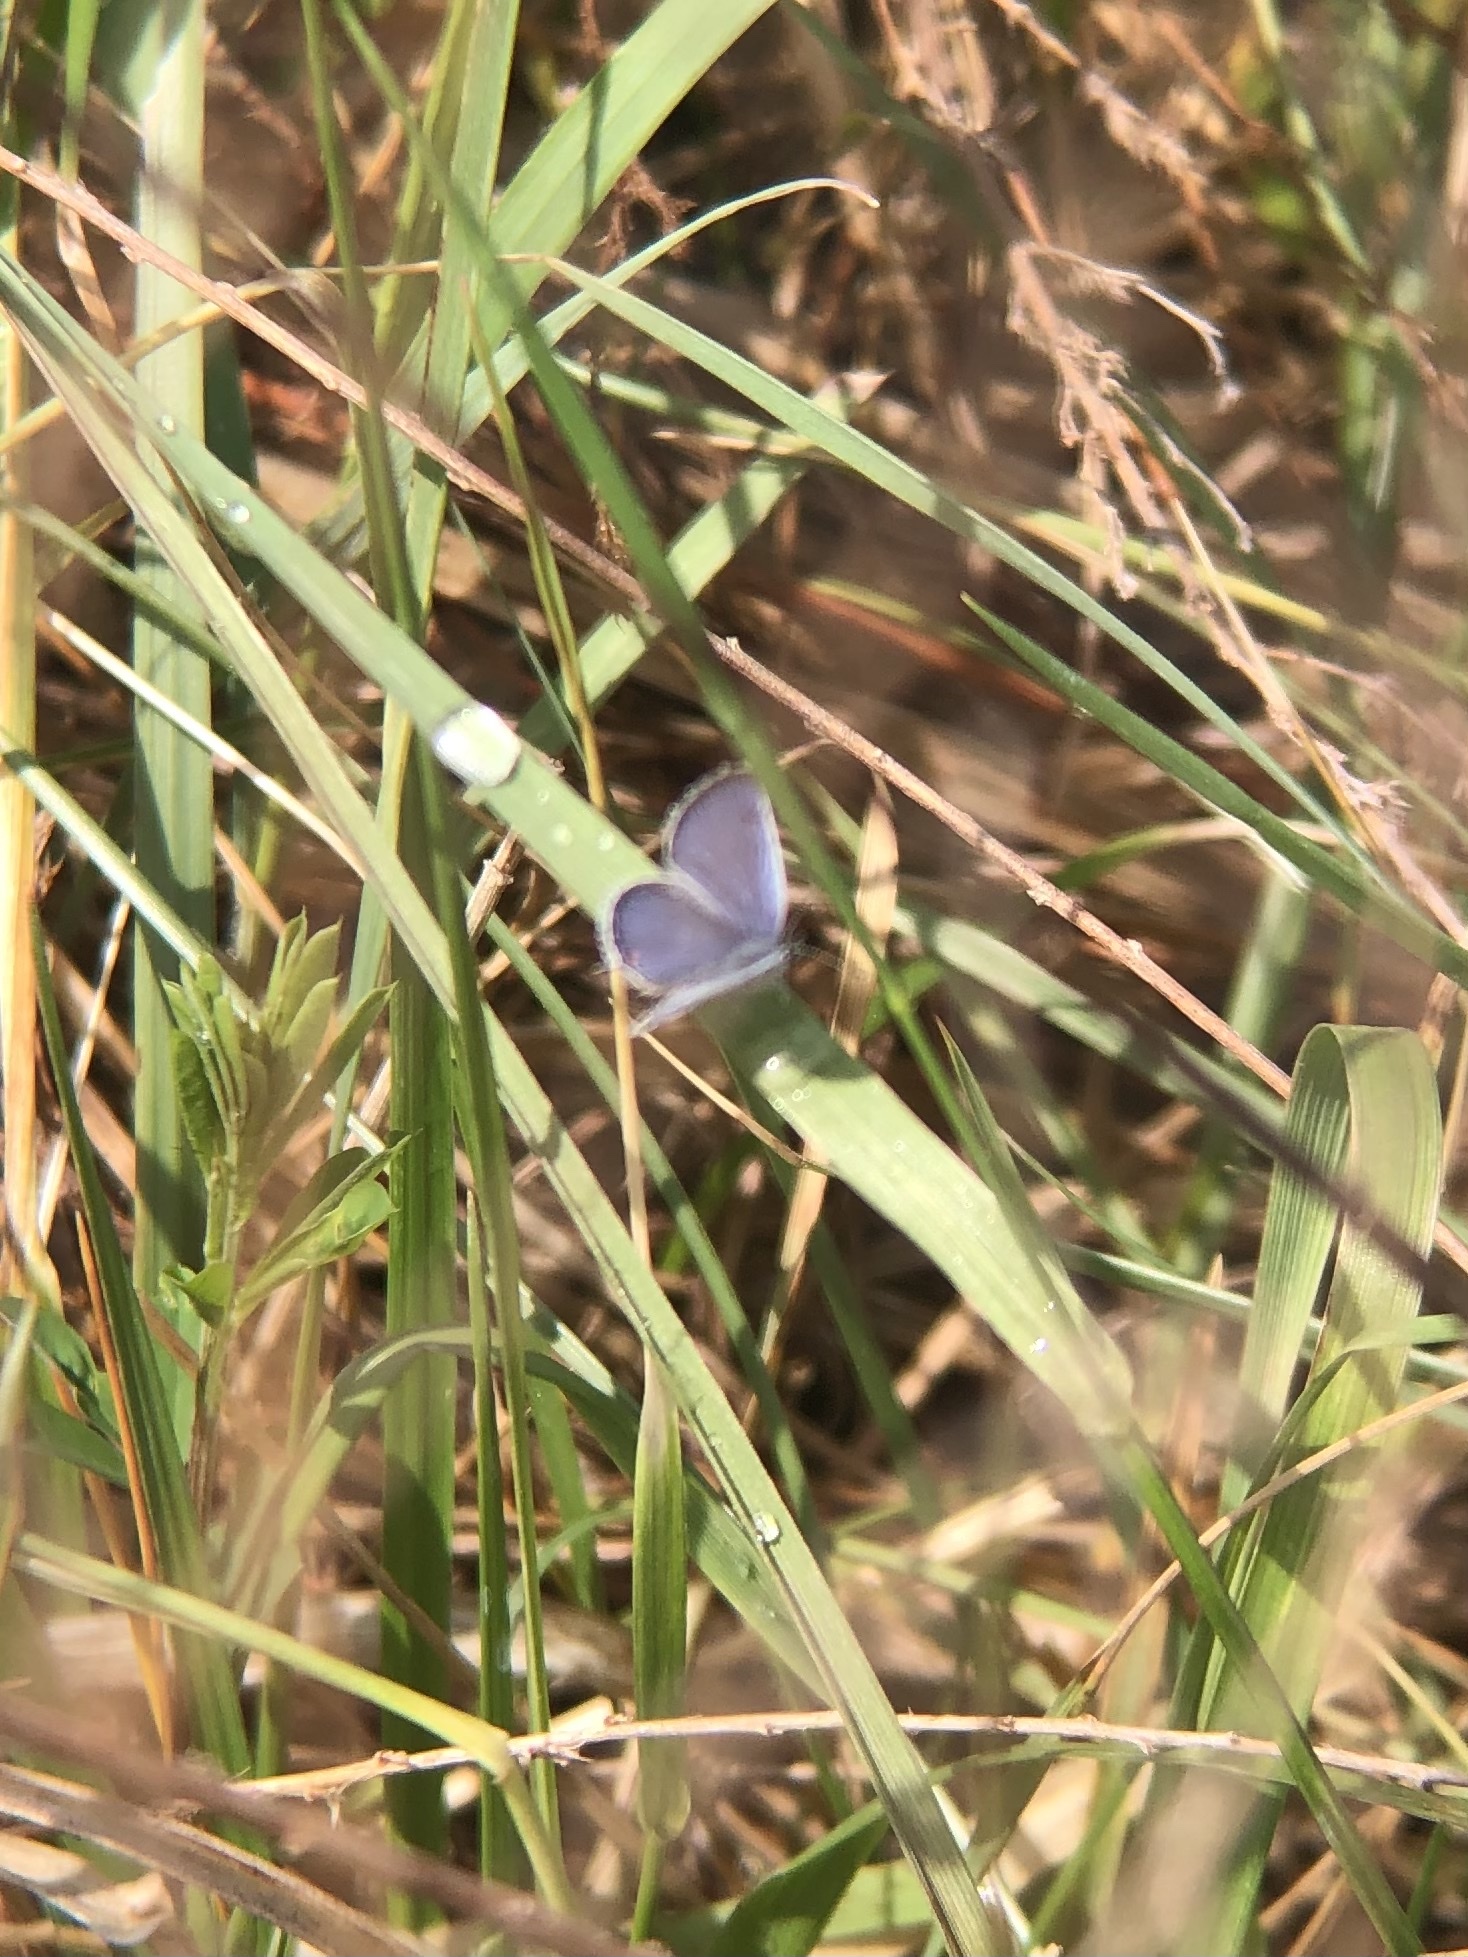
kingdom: Animalia
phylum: Arthropoda
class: Insecta
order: Lepidoptera
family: Lycaenidae
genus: Elkalyce
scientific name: Elkalyce comyntas
